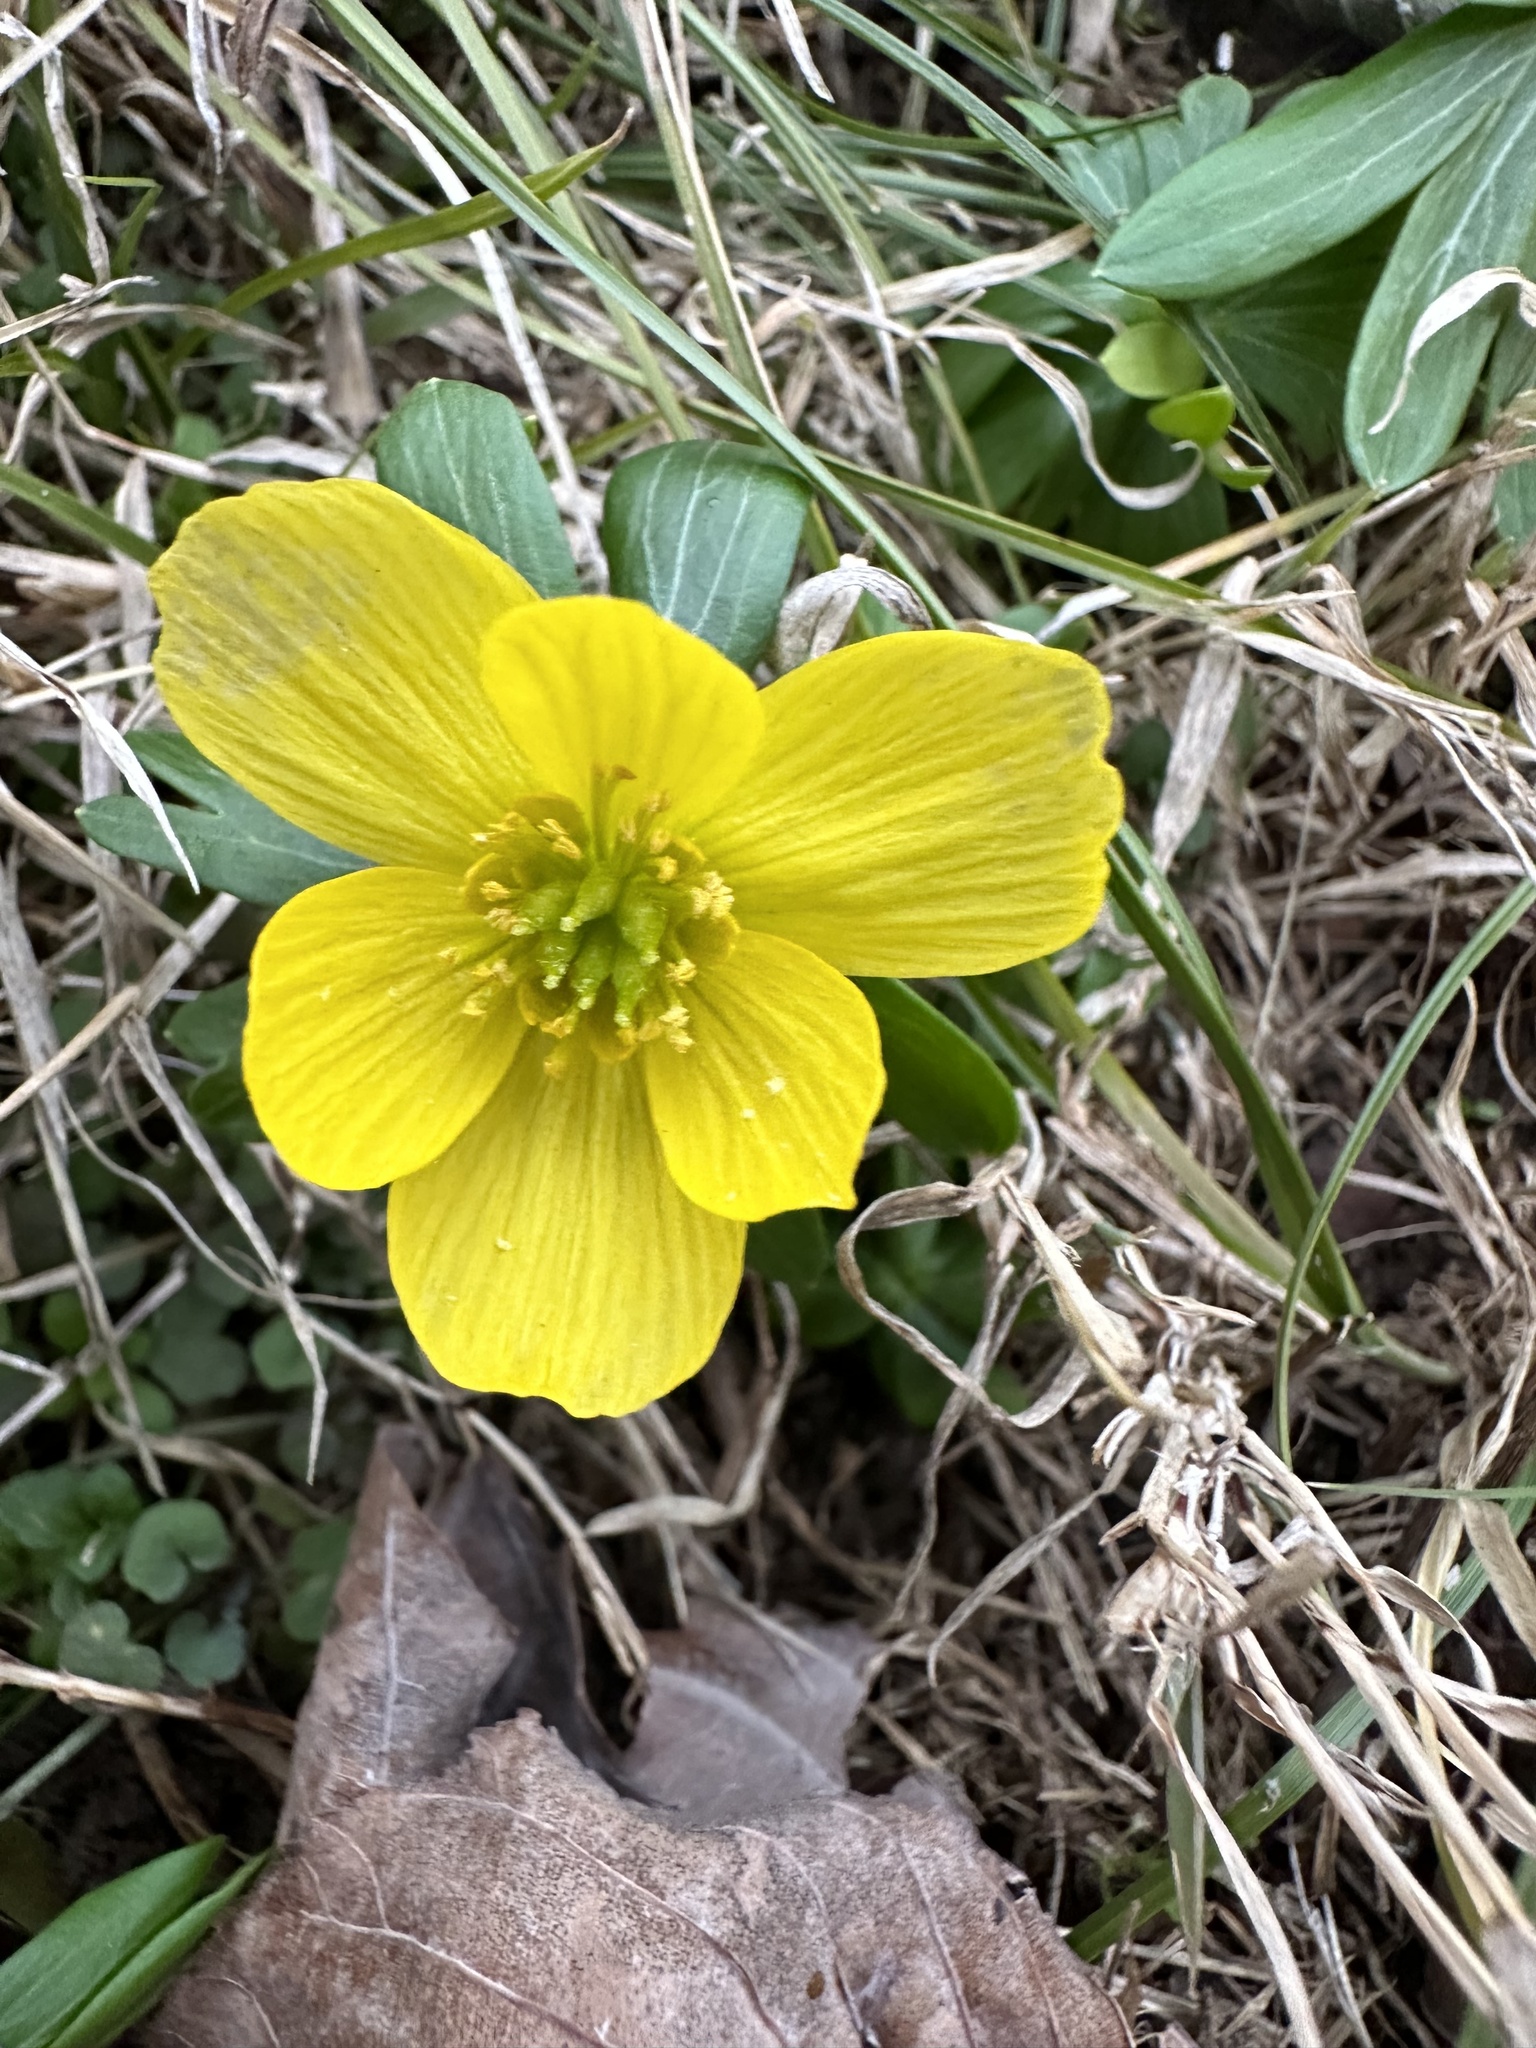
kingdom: Plantae
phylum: Tracheophyta
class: Magnoliopsida
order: Ranunculales
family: Ranunculaceae
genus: Eranthis
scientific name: Eranthis hyemalis
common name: Winter aconite
